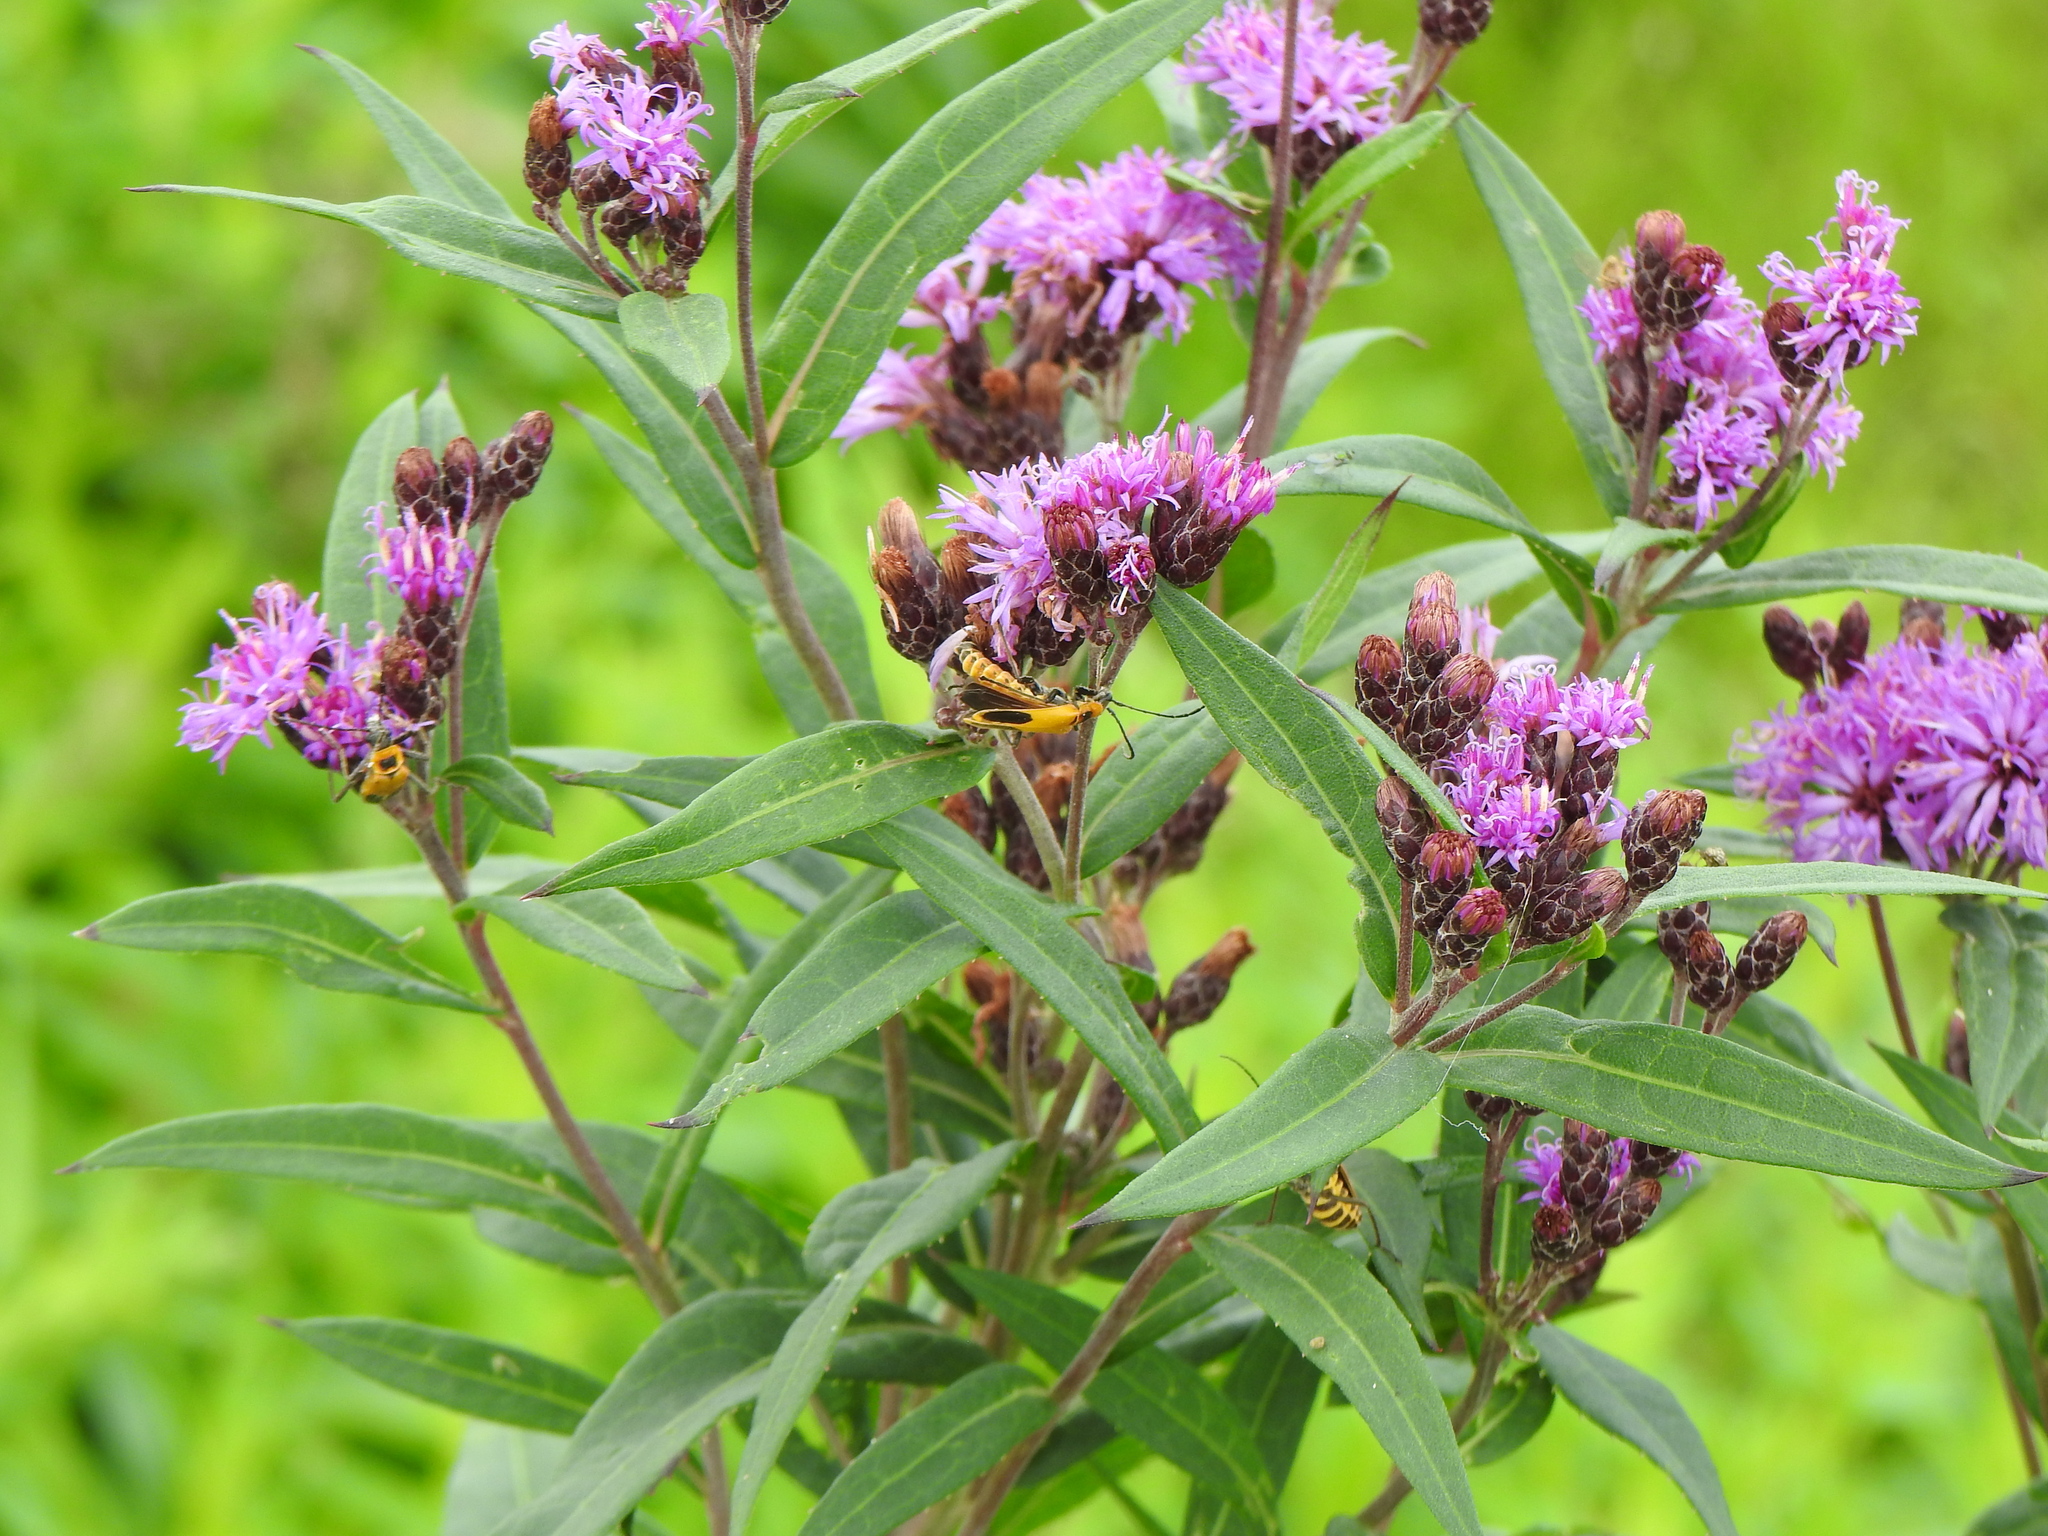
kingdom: Animalia
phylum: Arthropoda
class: Insecta
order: Coleoptera
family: Cantharidae
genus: Chauliognathus
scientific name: Chauliognathus pensylvanicus
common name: Goldenrod soldier beetle
